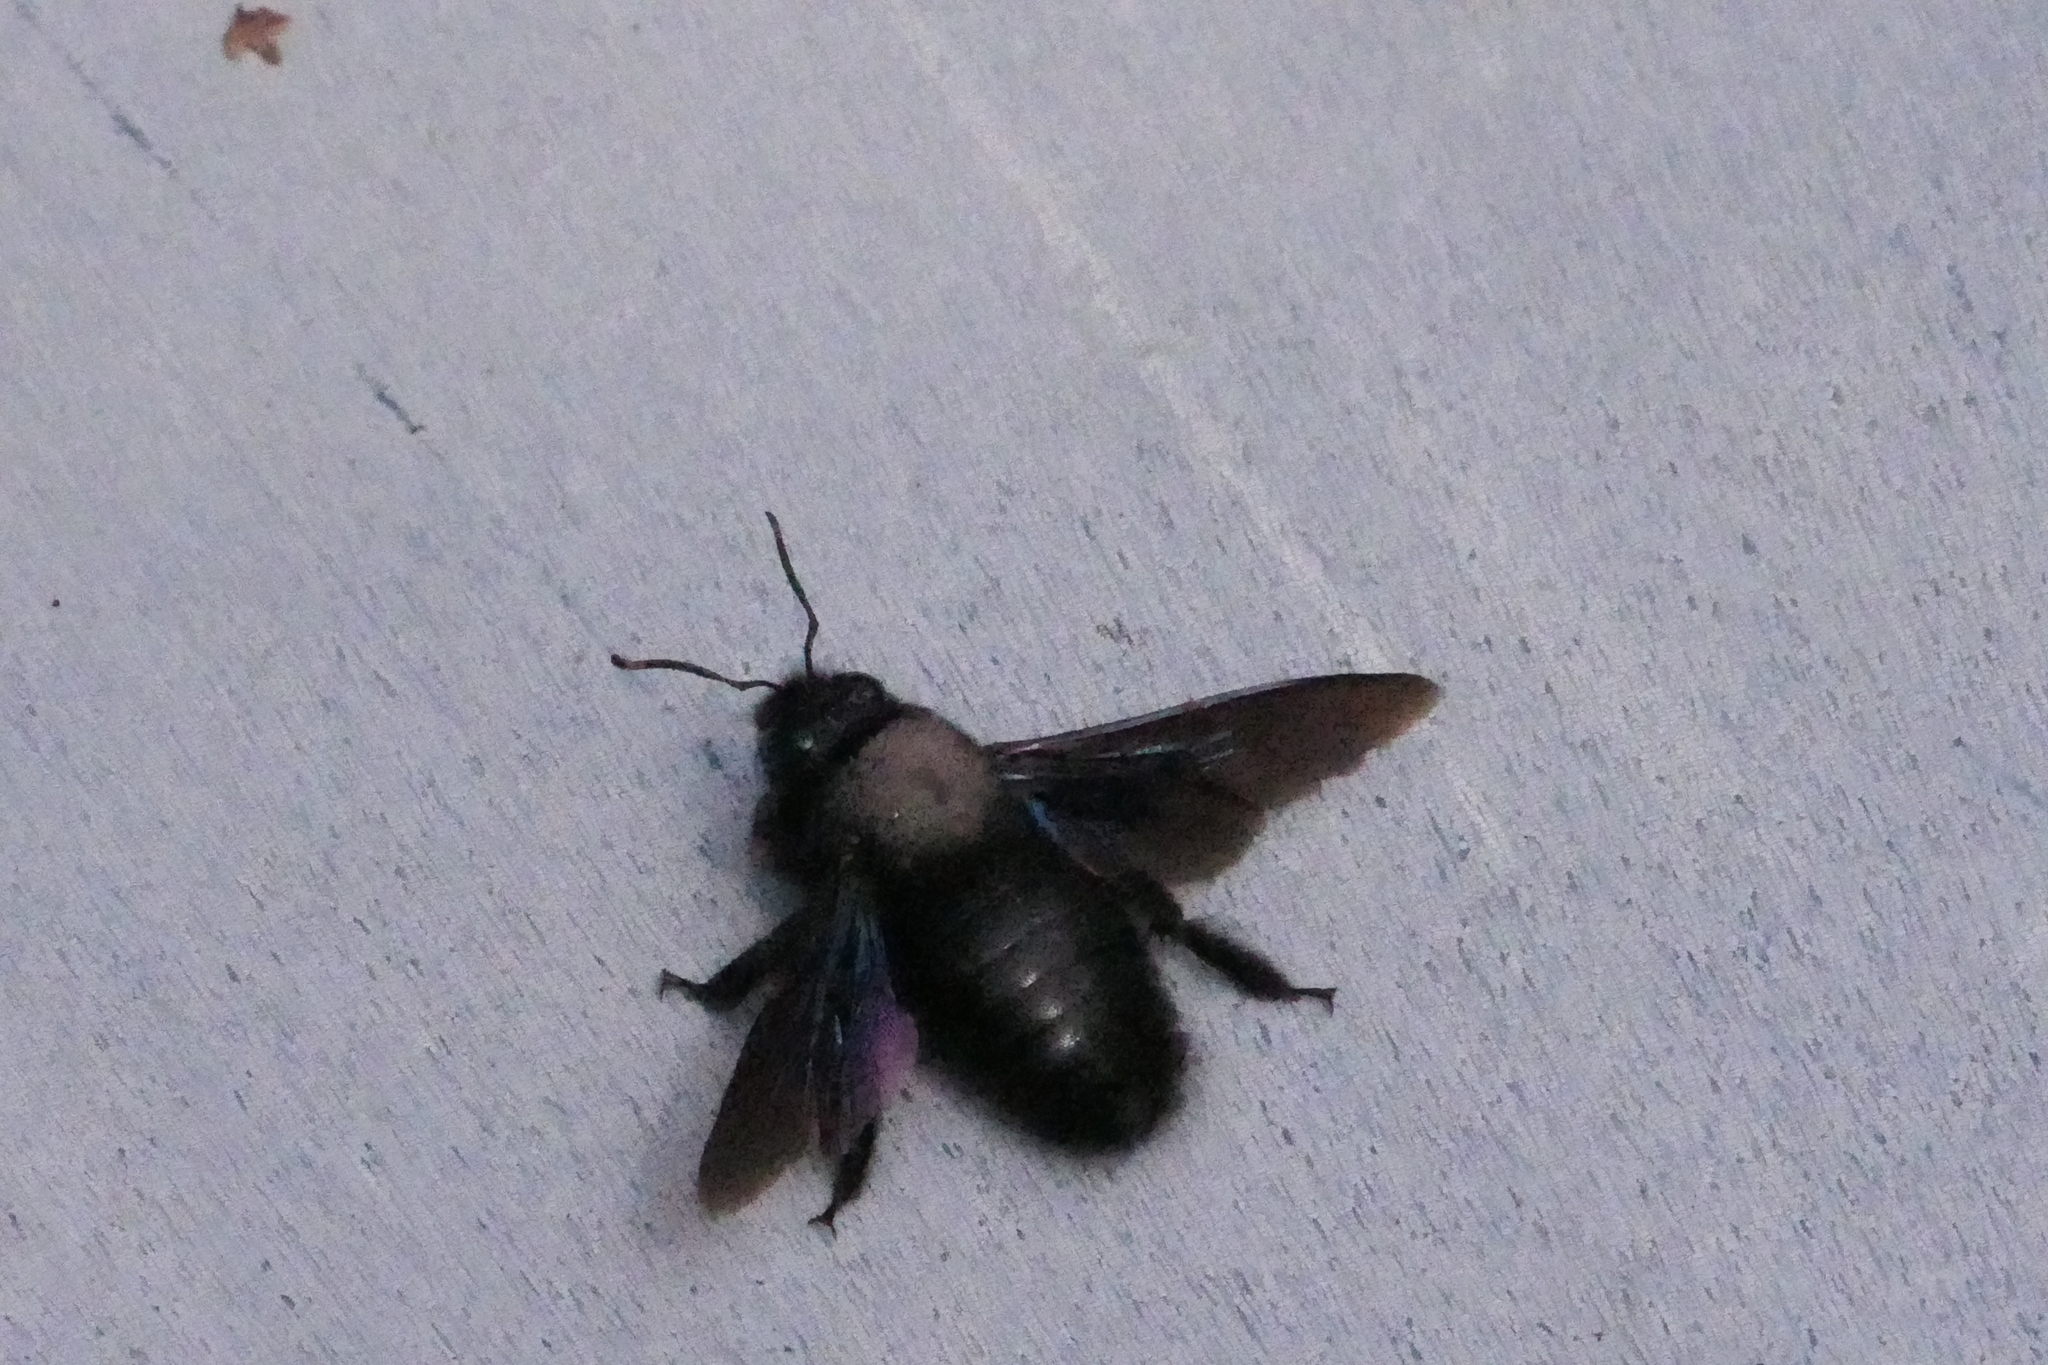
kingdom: Animalia
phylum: Arthropoda
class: Insecta
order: Hymenoptera
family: Apidae
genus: Xylocopa
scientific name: Xylocopa violacea
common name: Violet carpenter bee
